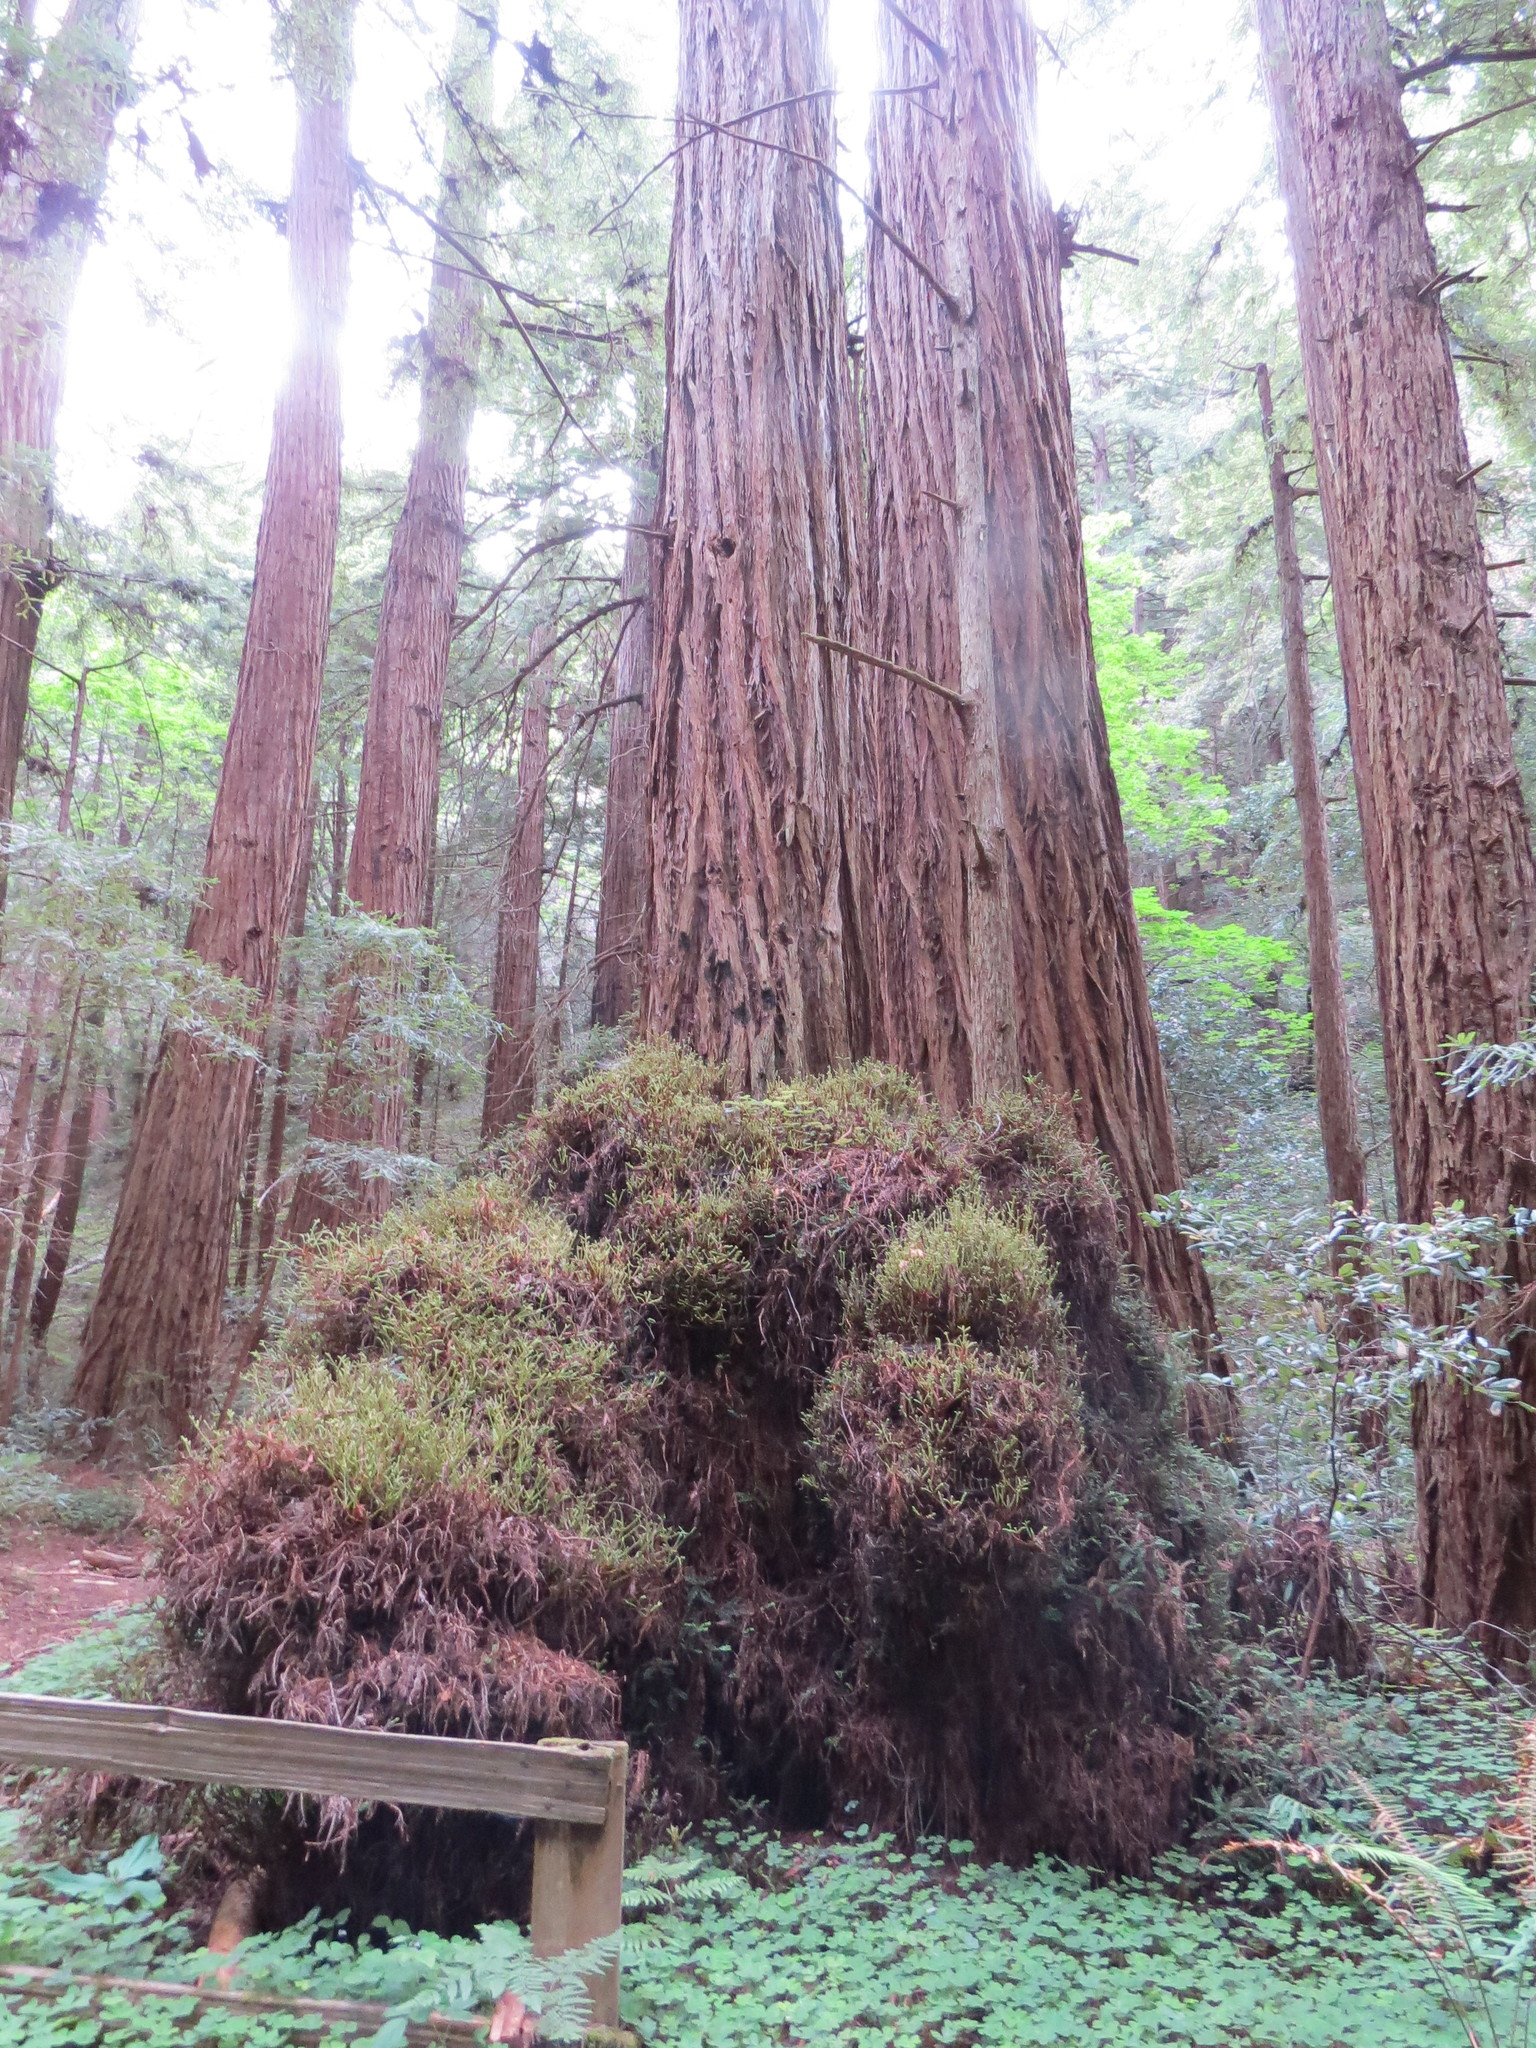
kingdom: Plantae
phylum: Tracheophyta
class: Pinopsida
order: Pinales
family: Cupressaceae
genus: Sequoia
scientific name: Sequoia sempervirens
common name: Coast redwood
